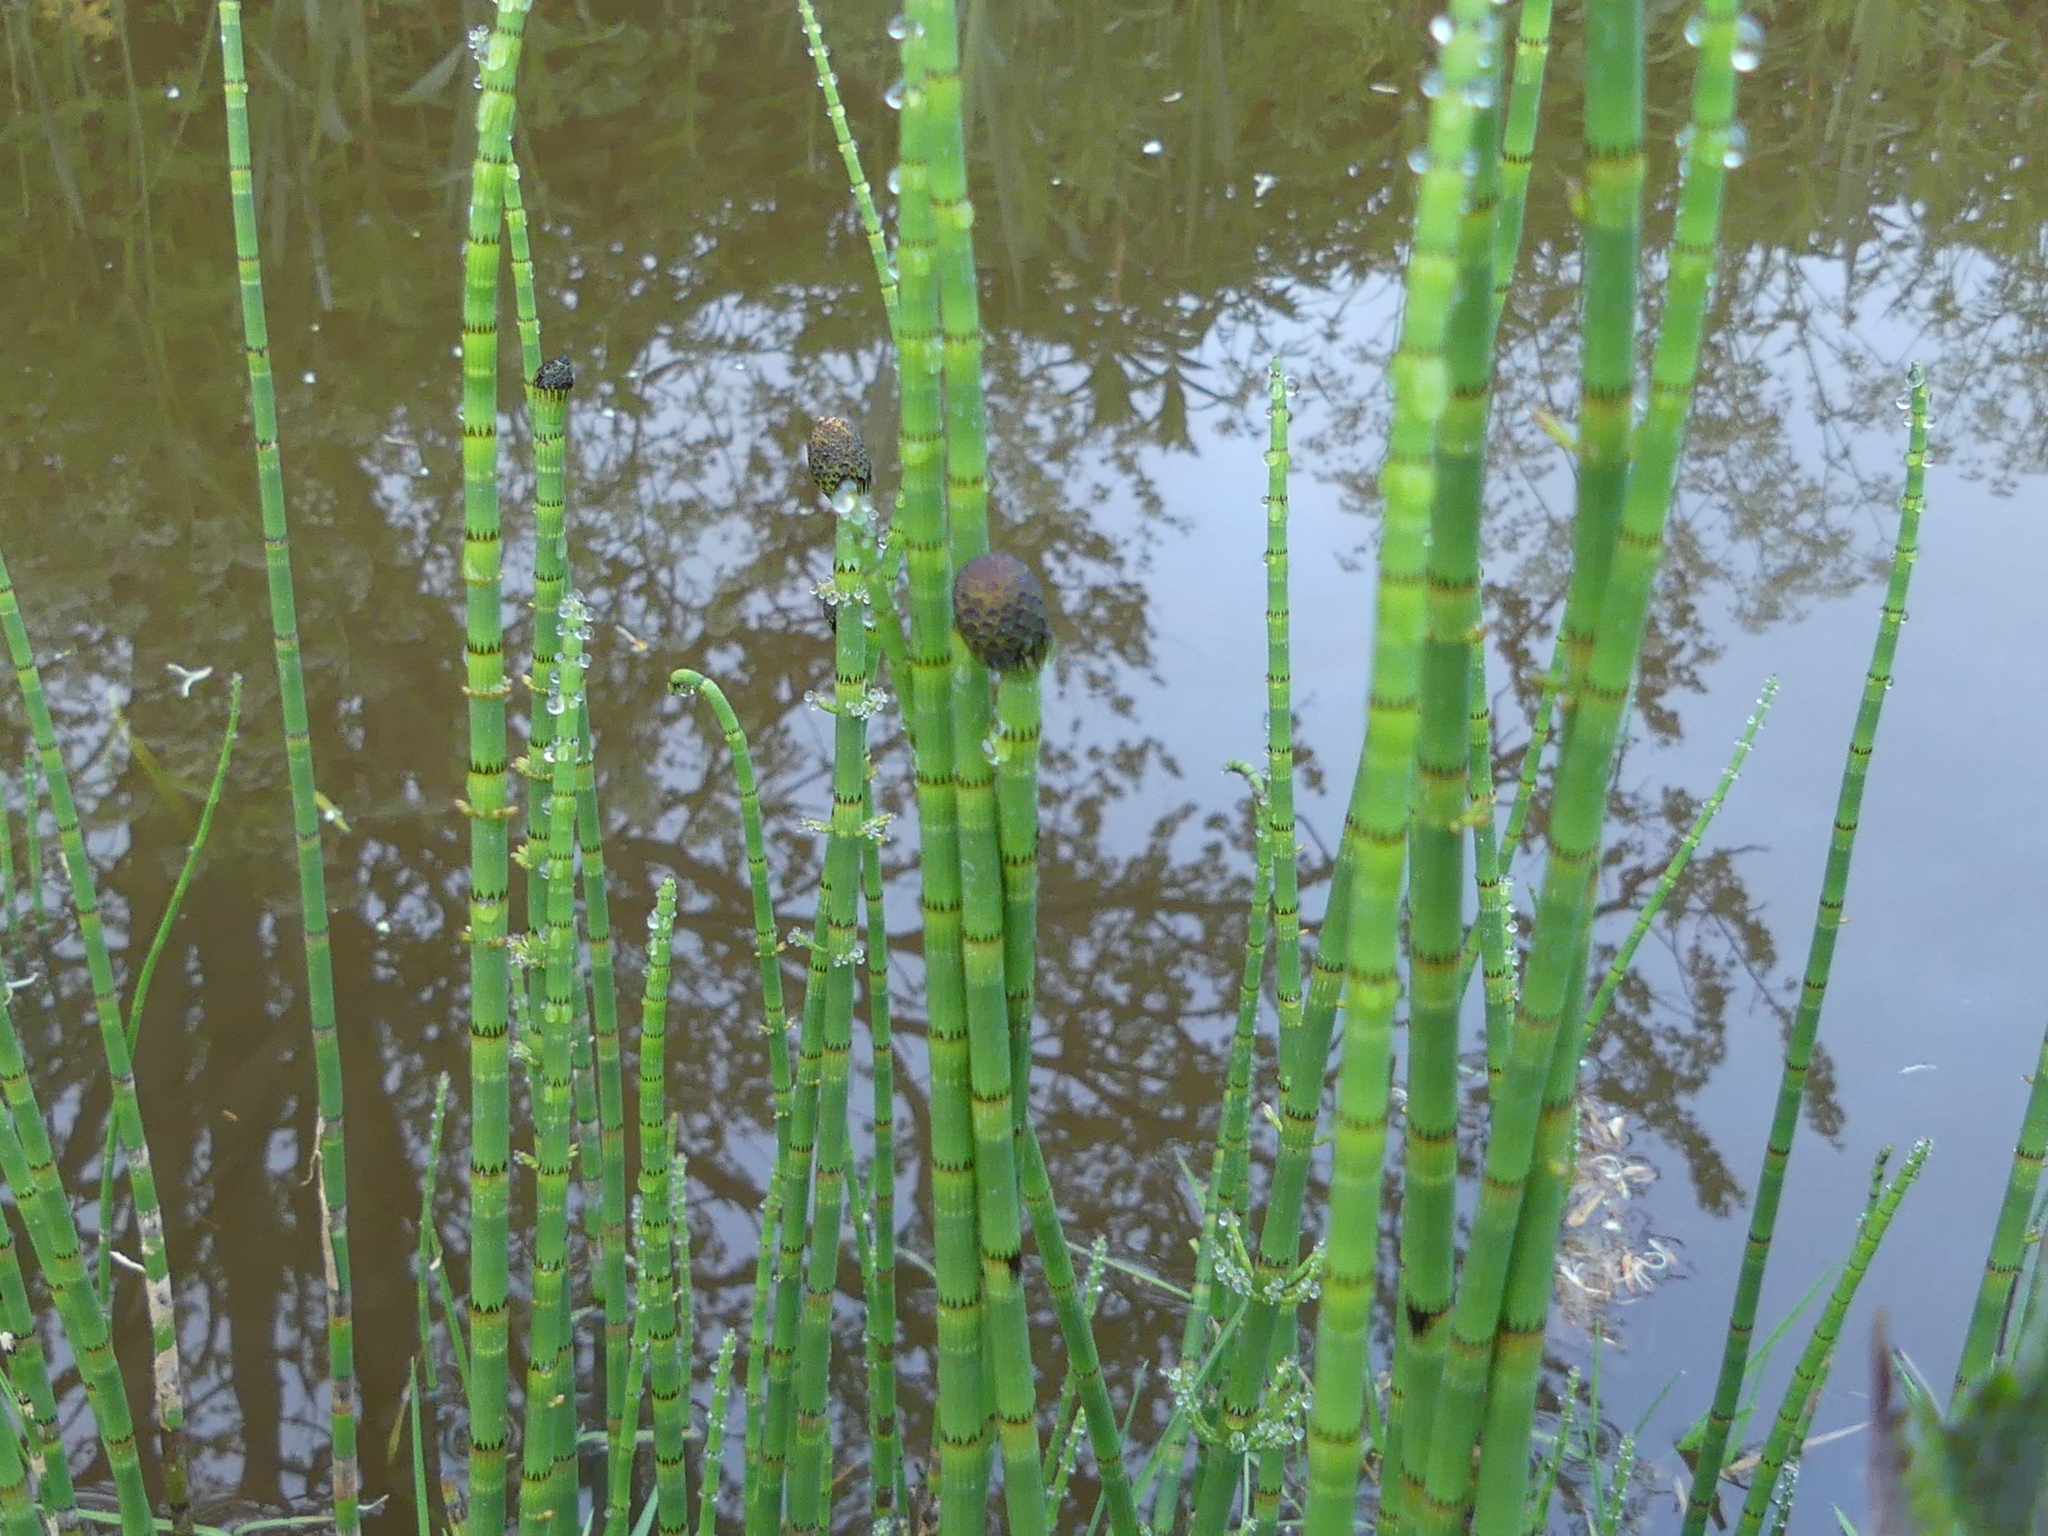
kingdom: Plantae
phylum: Tracheophyta
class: Polypodiopsida
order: Equisetales
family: Equisetaceae
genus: Equisetum
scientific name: Equisetum fluviatile
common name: Water horsetail
